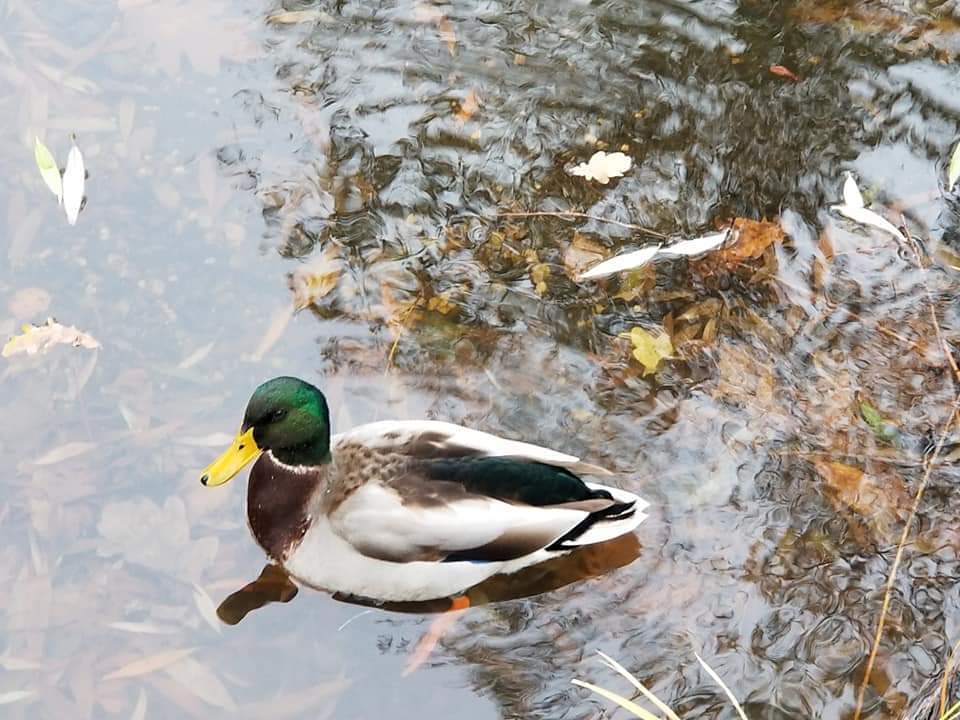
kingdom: Animalia
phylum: Chordata
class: Aves
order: Anseriformes
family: Anatidae
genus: Anas
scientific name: Anas platyrhynchos
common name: Mallard
